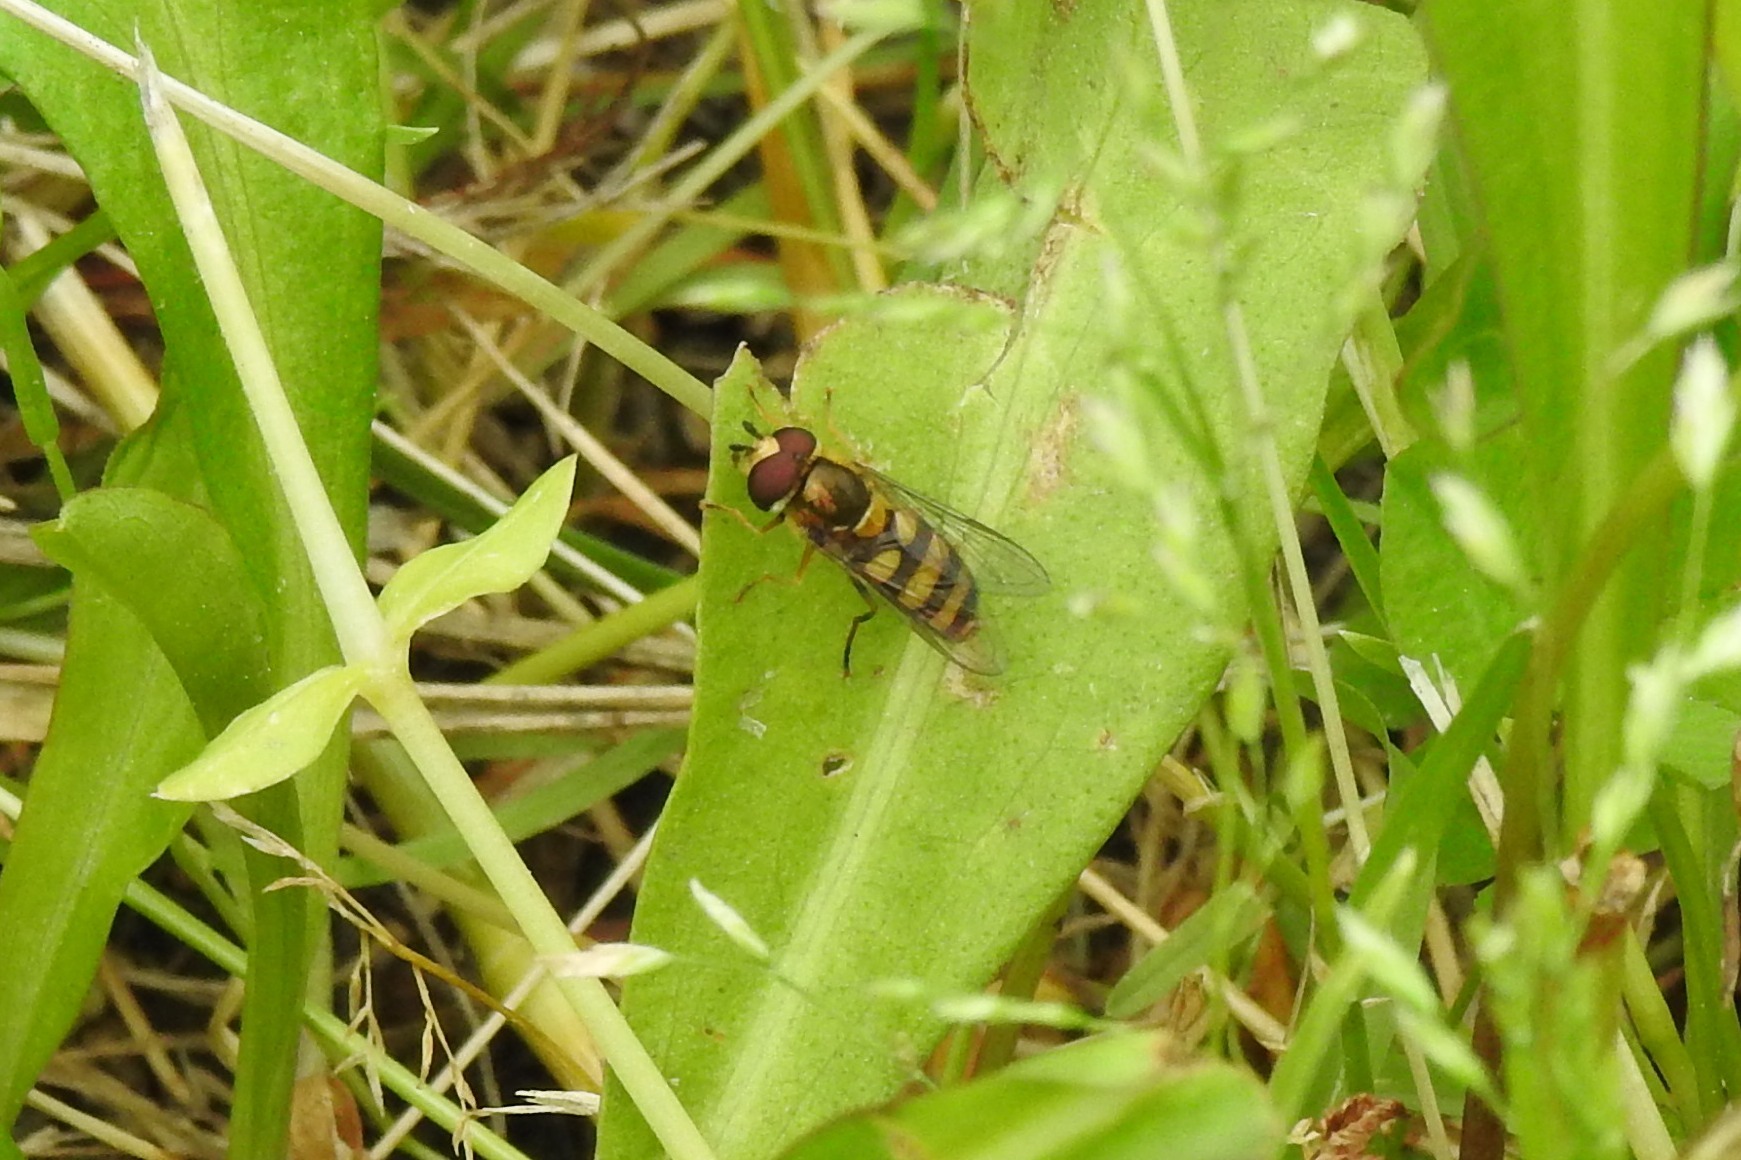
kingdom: Animalia
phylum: Arthropoda
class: Insecta
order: Diptera
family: Syrphidae
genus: Eupeodes
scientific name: Eupeodes
